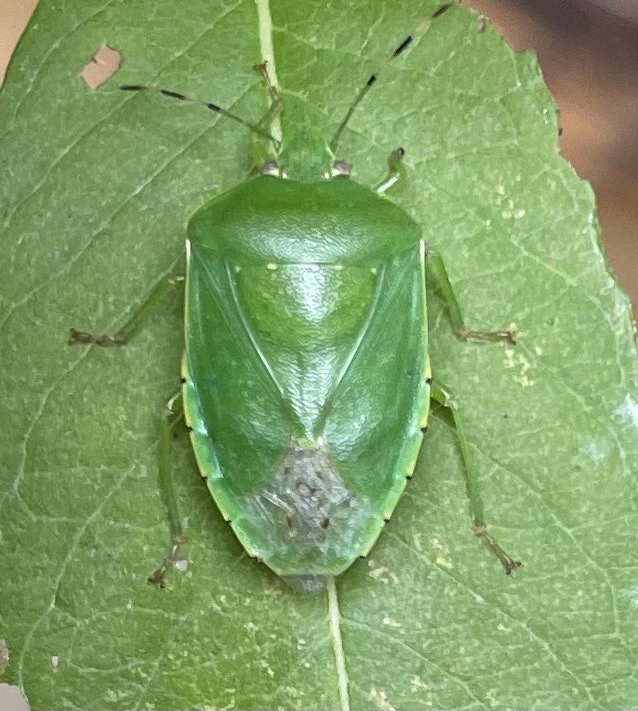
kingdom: Animalia
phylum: Arthropoda
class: Insecta
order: Hemiptera
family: Pentatomidae
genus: Chinavia
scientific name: Chinavia hilaris
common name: Green stink bug
